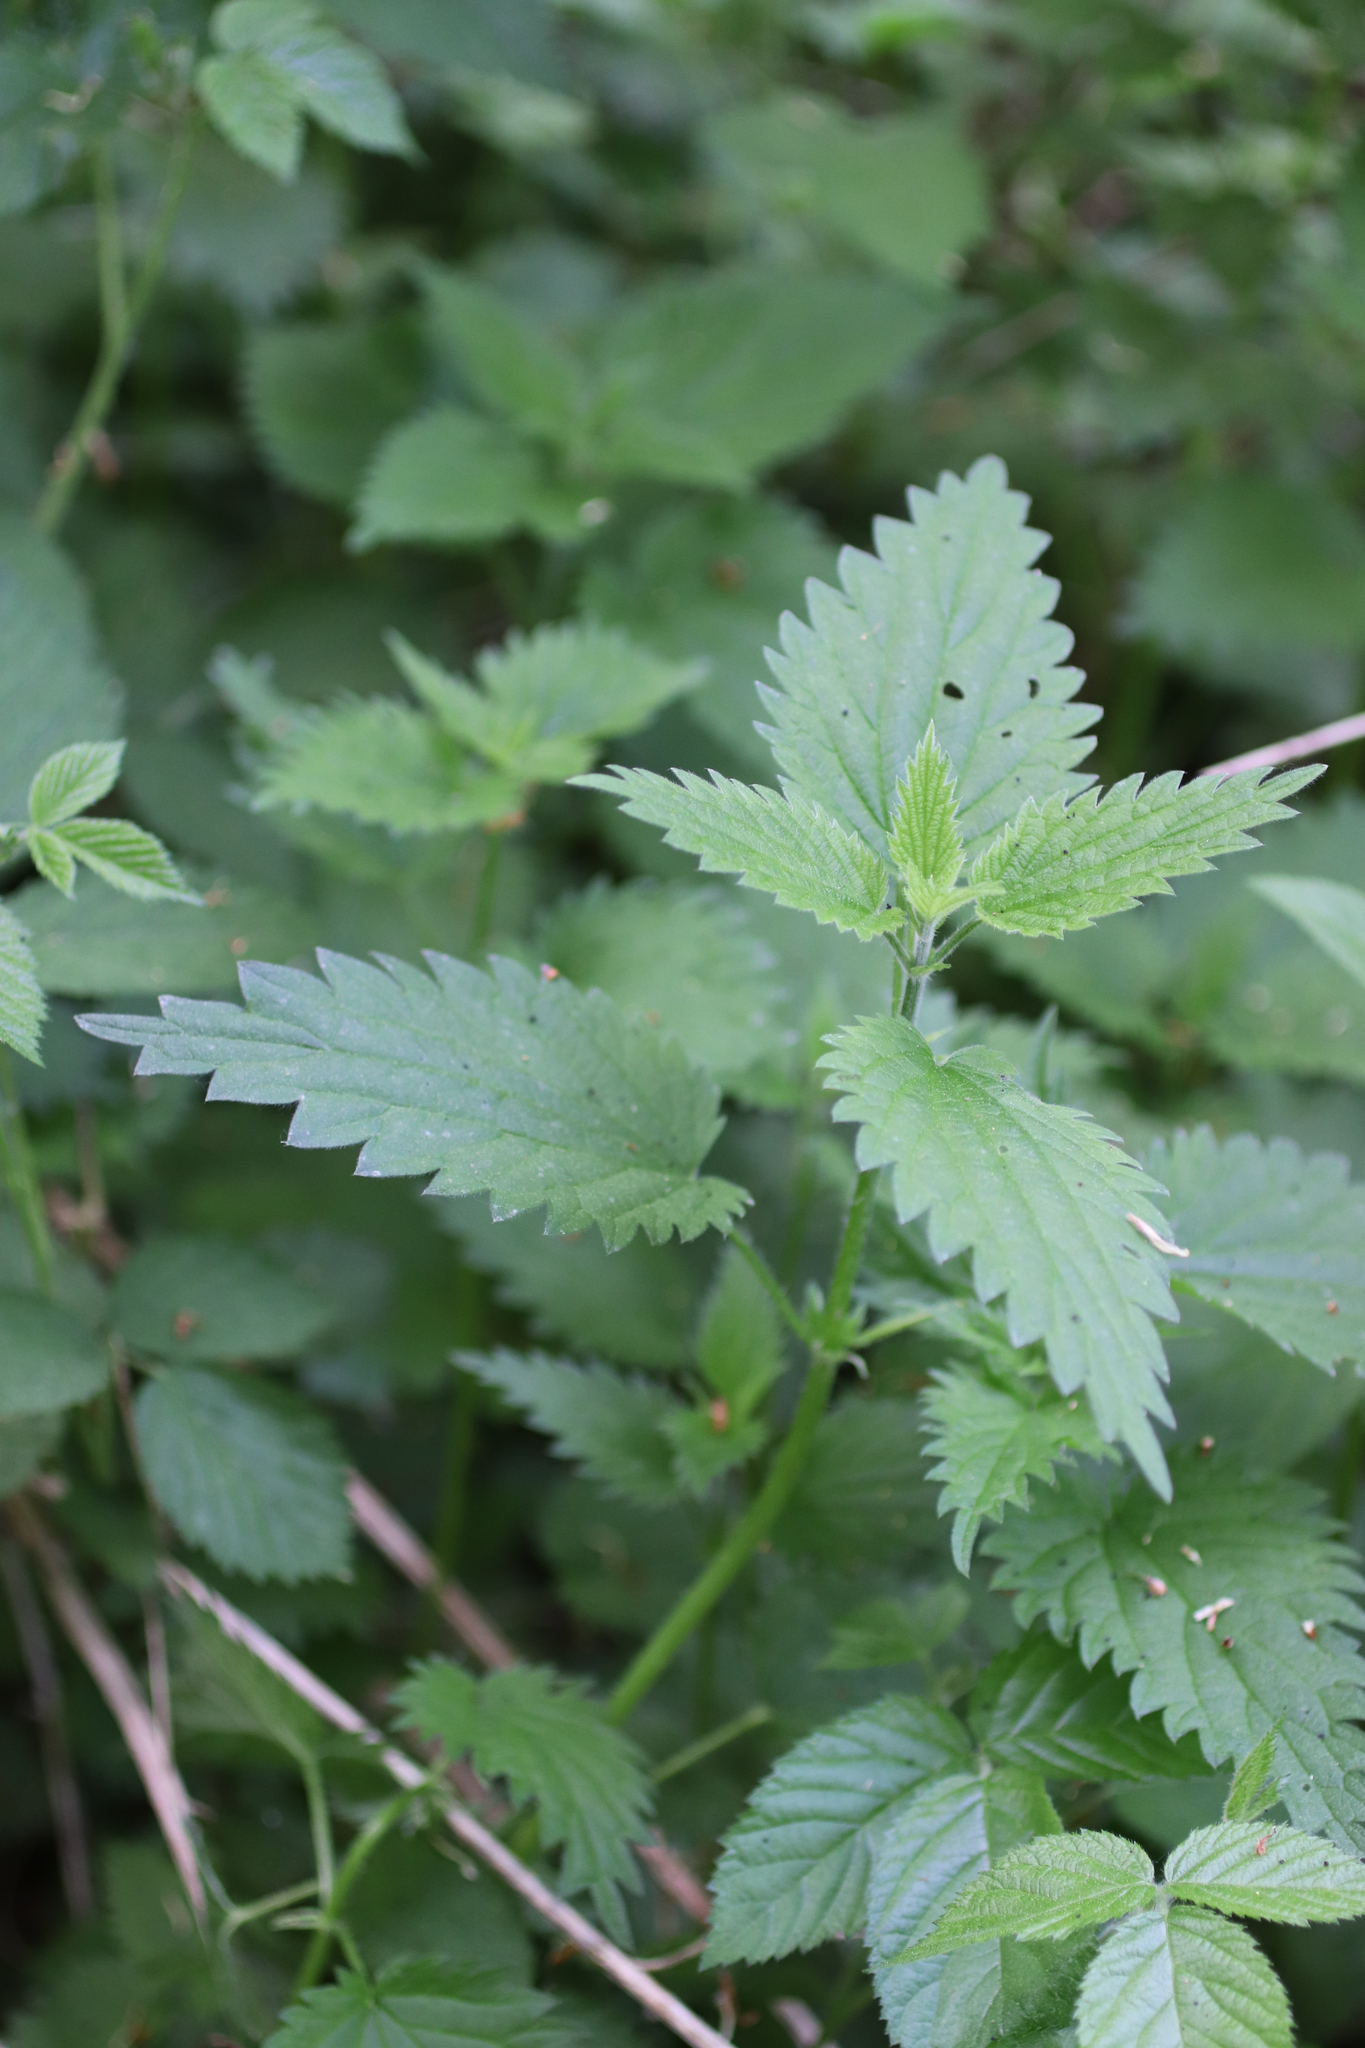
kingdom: Plantae
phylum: Tracheophyta
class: Magnoliopsida
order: Rosales
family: Urticaceae
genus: Urtica
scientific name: Urtica dioica
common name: Common nettle
